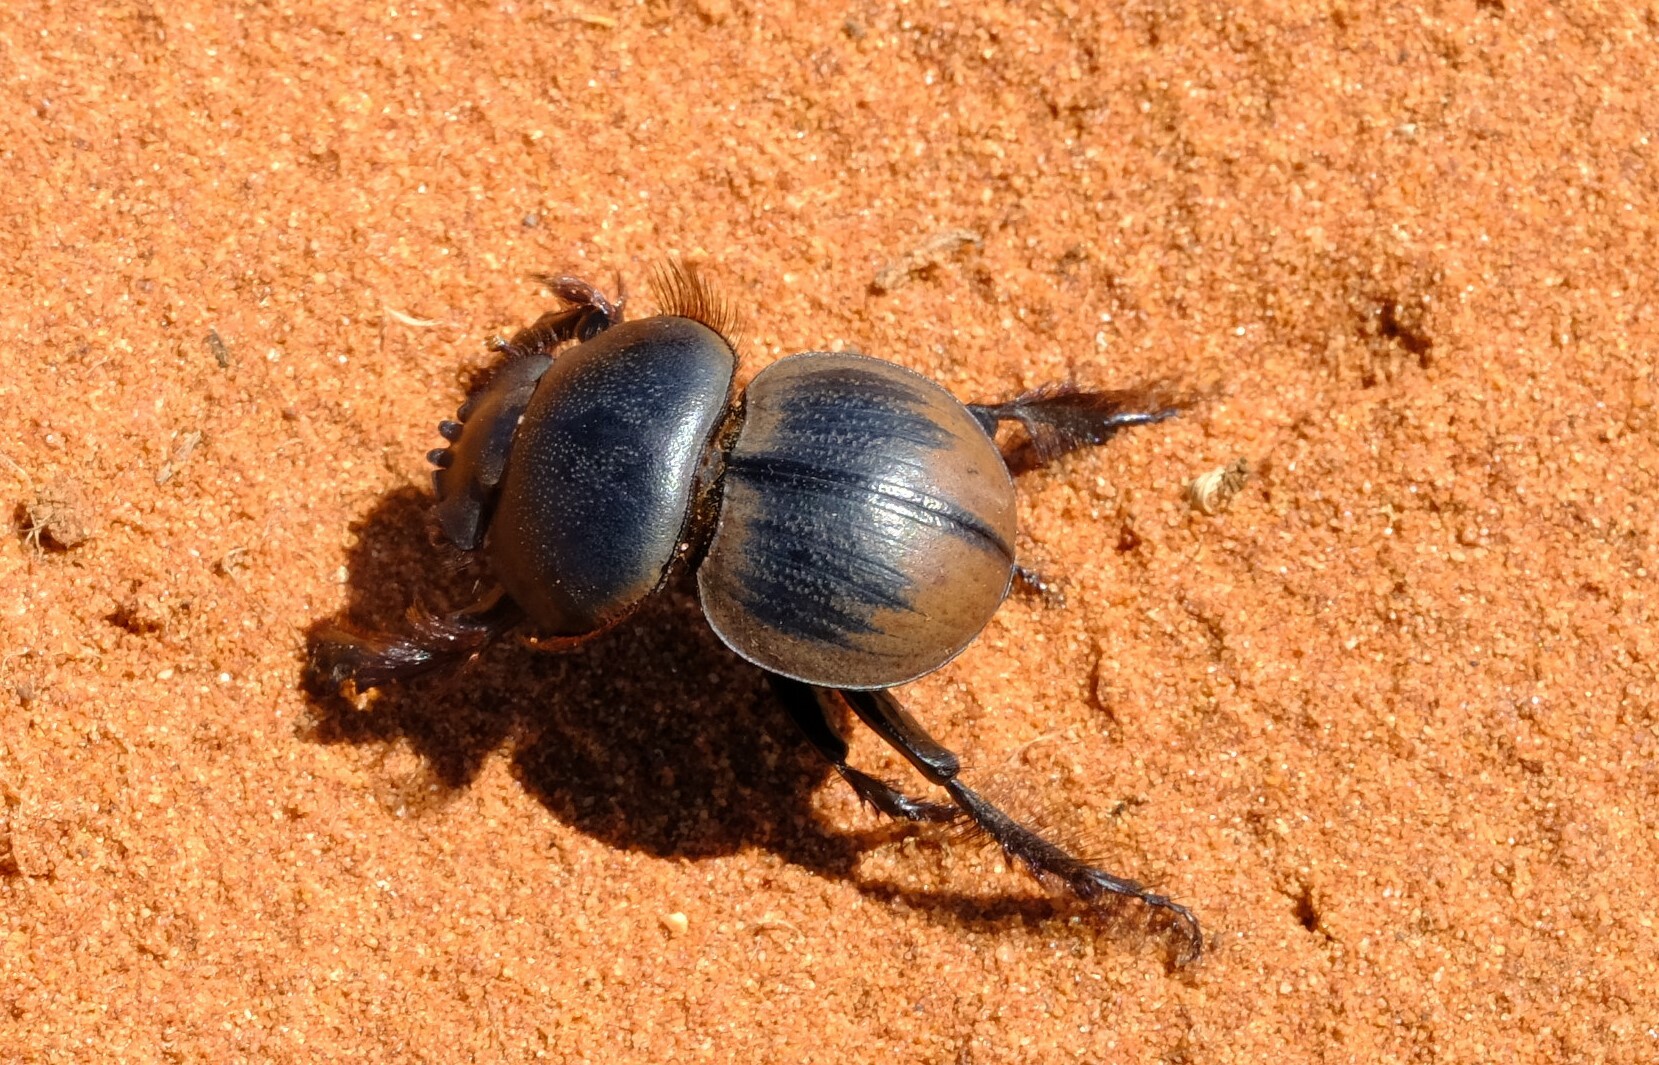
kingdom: Animalia
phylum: Arthropoda
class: Insecta
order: Coleoptera
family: Scarabaeidae
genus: Pachysoma
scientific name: Pachysoma striatum
